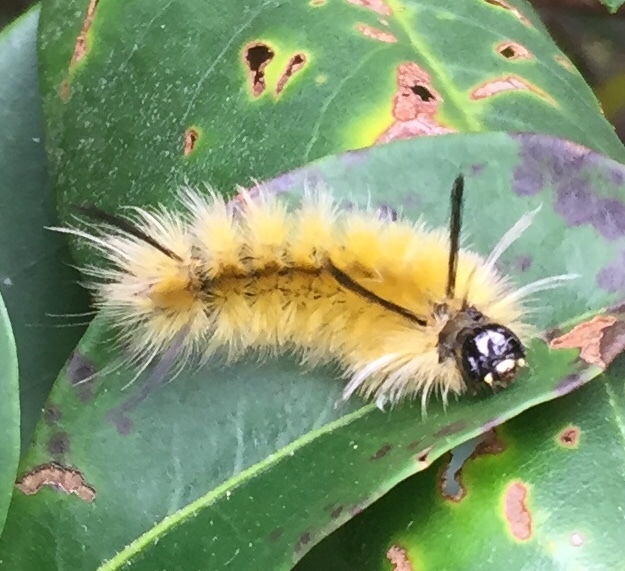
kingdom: Animalia
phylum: Arthropoda
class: Insecta
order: Lepidoptera
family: Erebidae
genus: Halysidota
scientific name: Halysidota tessellaris
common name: Banded tussock moth
